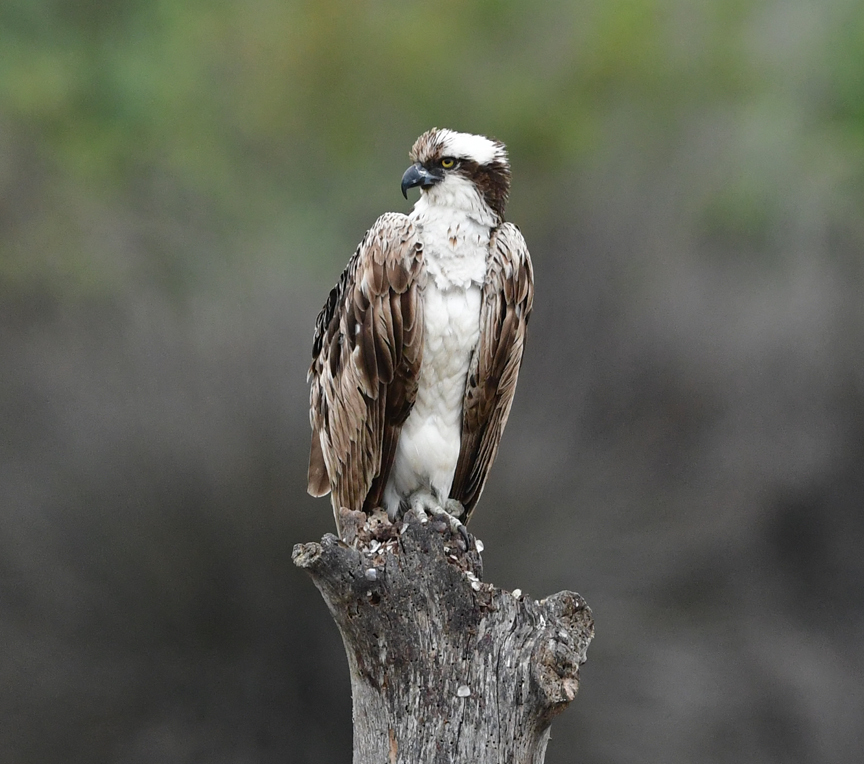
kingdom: Animalia
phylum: Chordata
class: Aves
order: Accipitriformes
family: Pandionidae
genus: Pandion
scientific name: Pandion haliaetus
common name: Osprey
